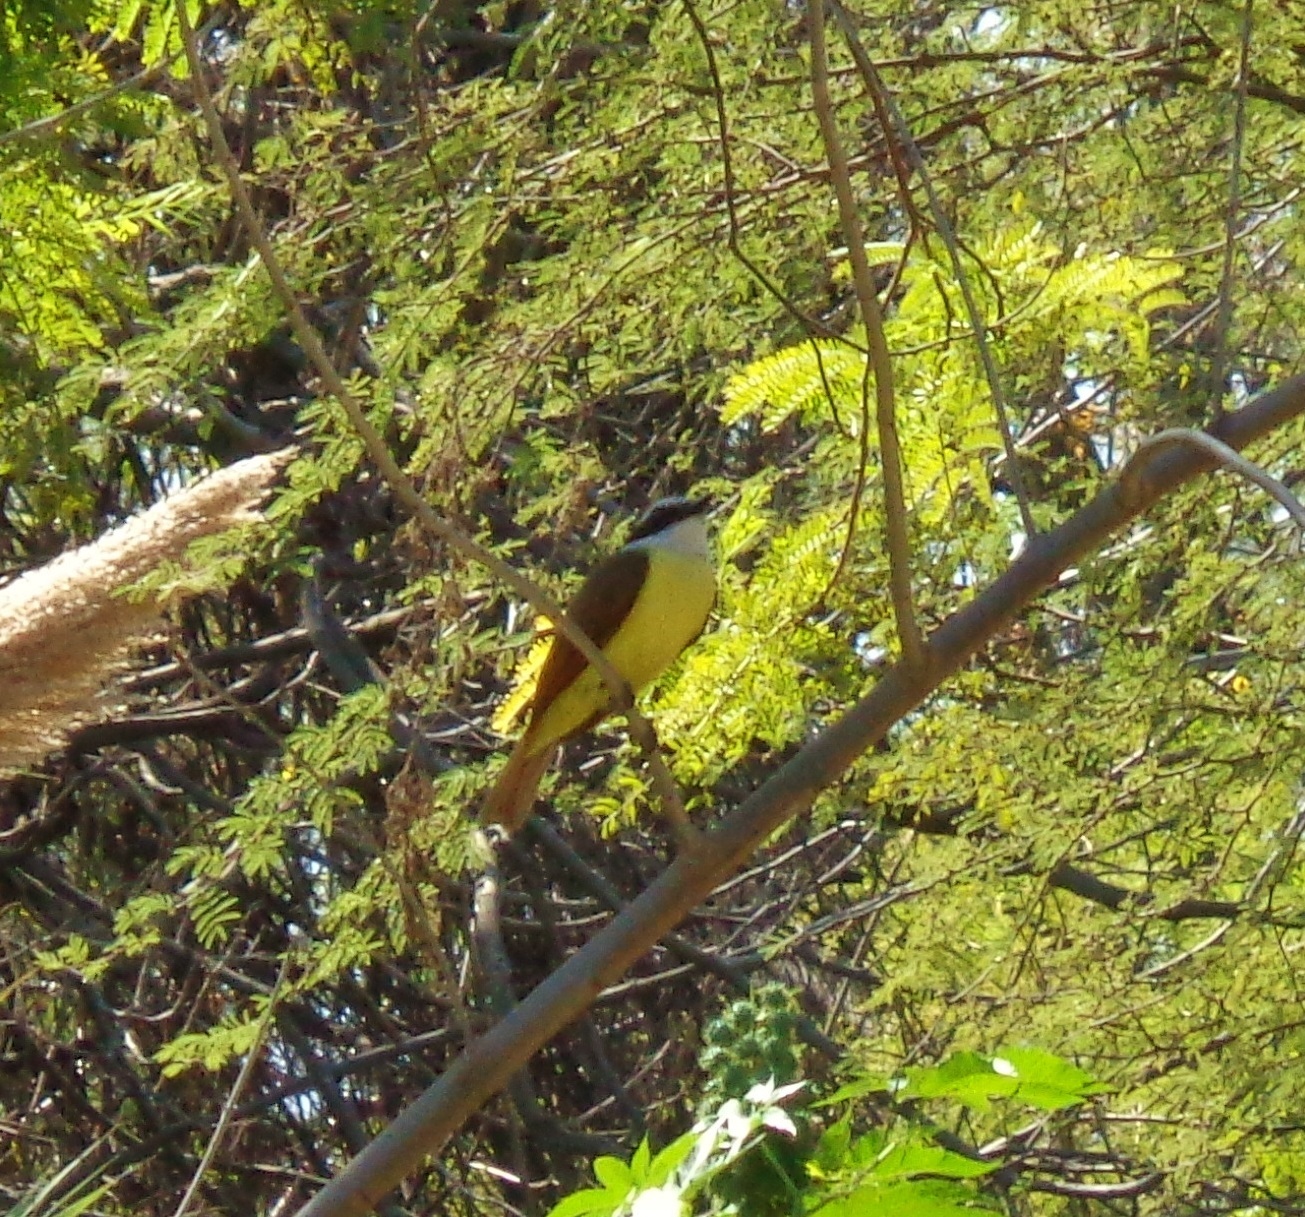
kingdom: Animalia
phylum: Chordata
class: Aves
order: Passeriformes
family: Tyrannidae
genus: Pitangus
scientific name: Pitangus sulphuratus
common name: Great kiskadee
